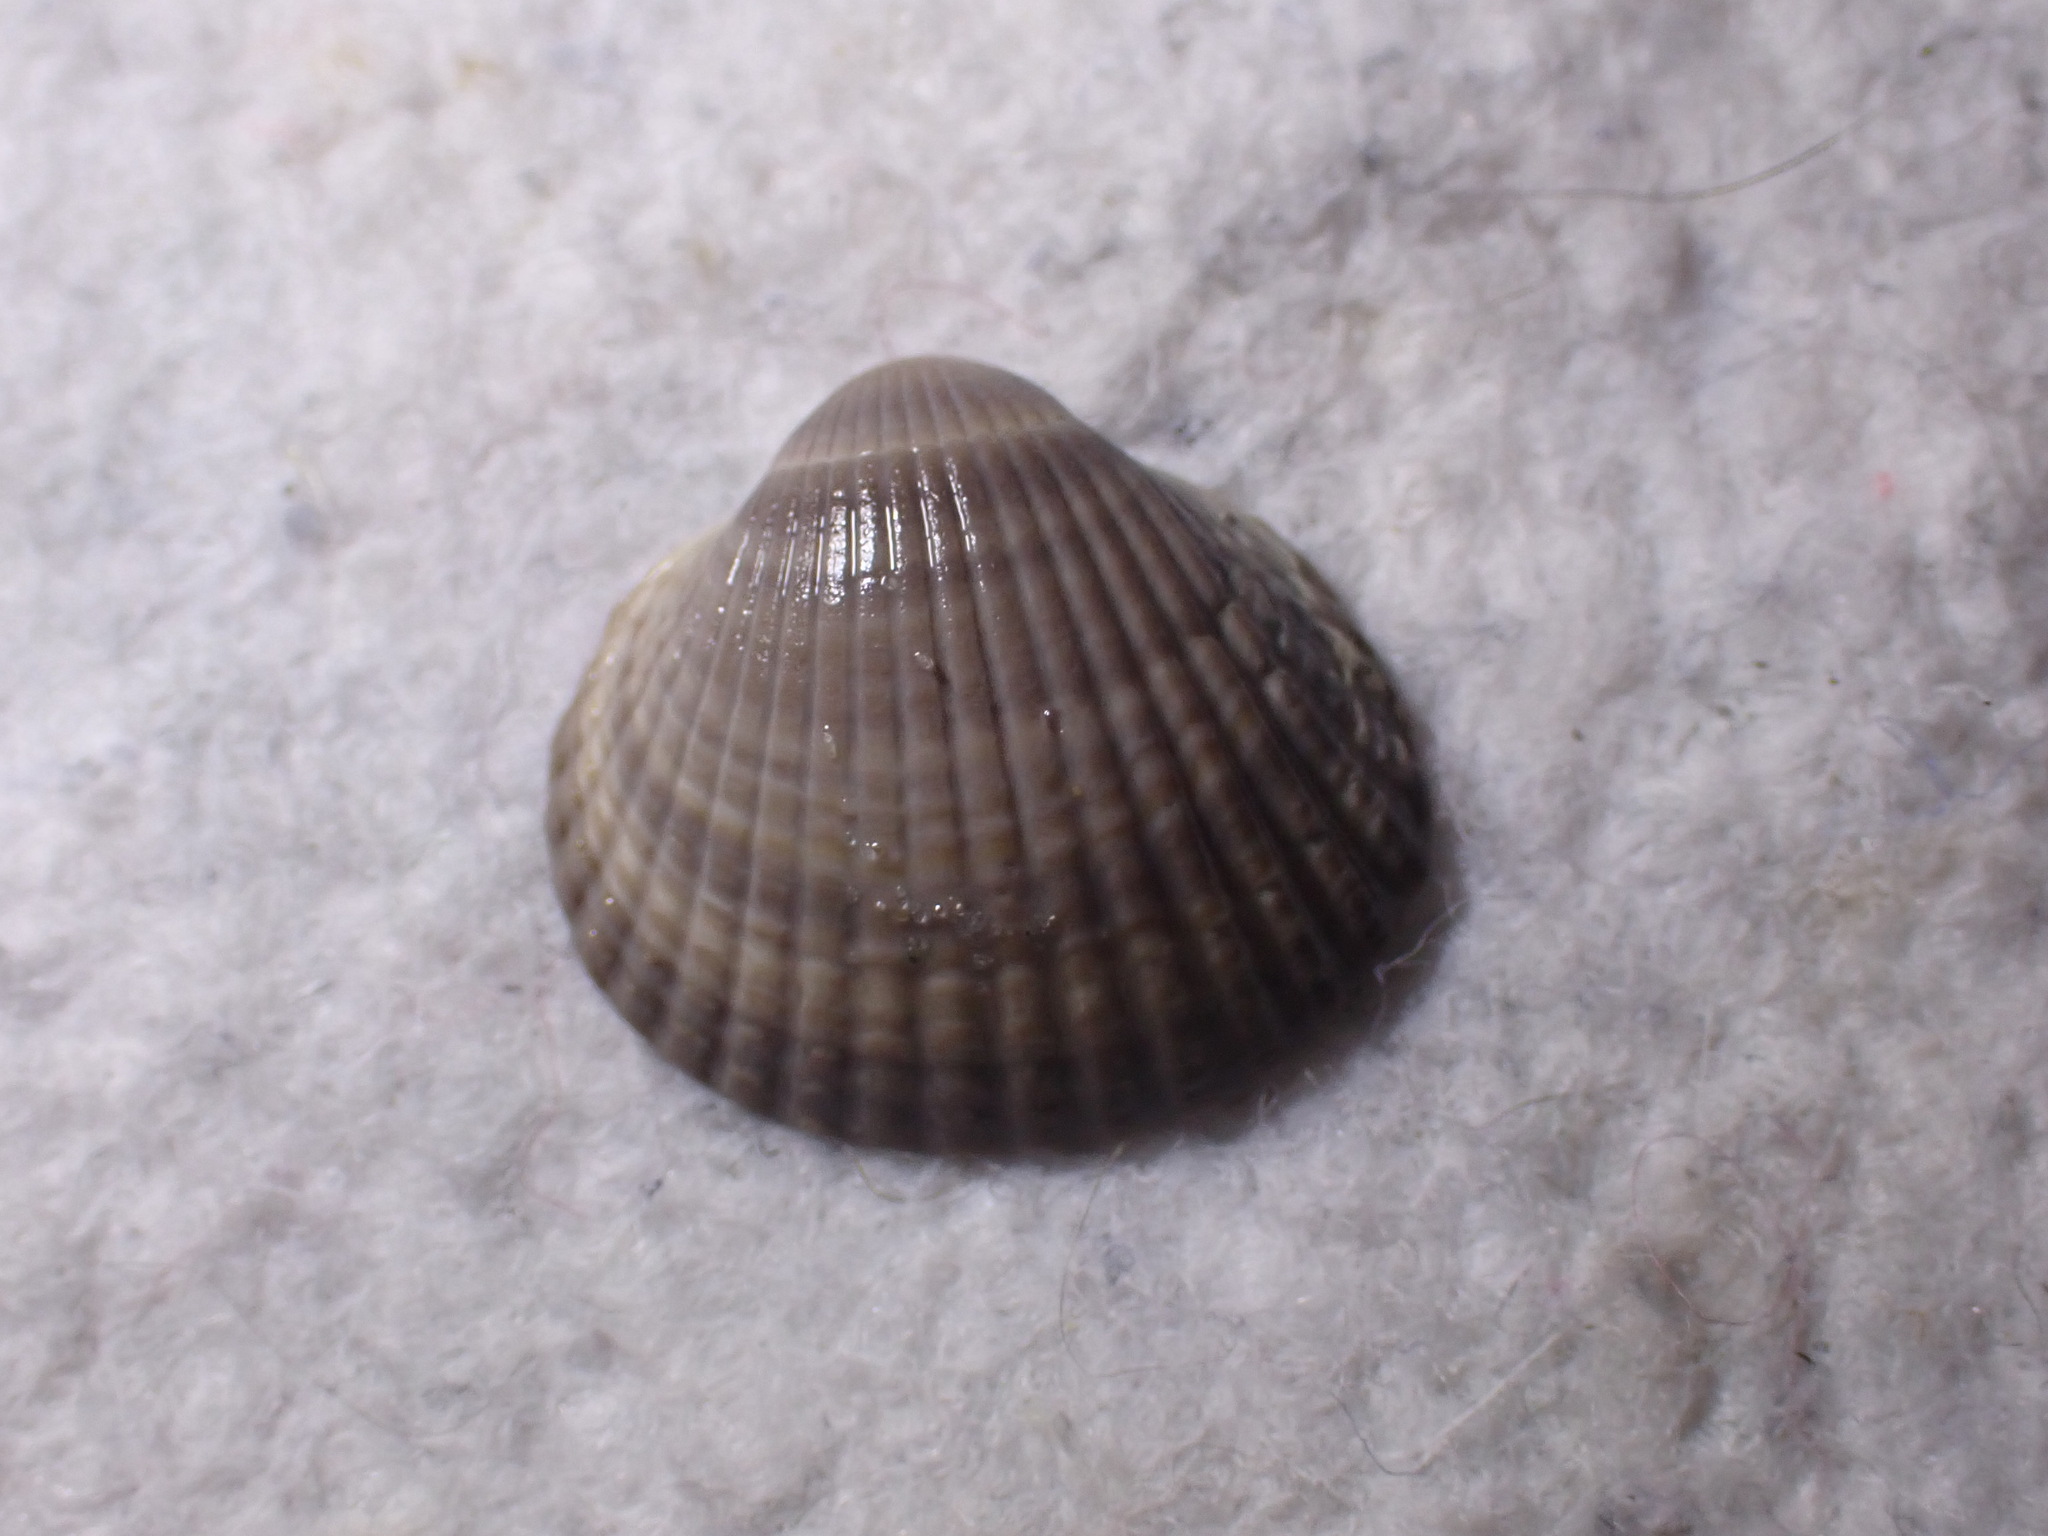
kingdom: Animalia
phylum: Mollusca
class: Bivalvia
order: Cardiida
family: Cardiidae
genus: Cerastoderma
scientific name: Cerastoderma edule
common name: Common cockle
